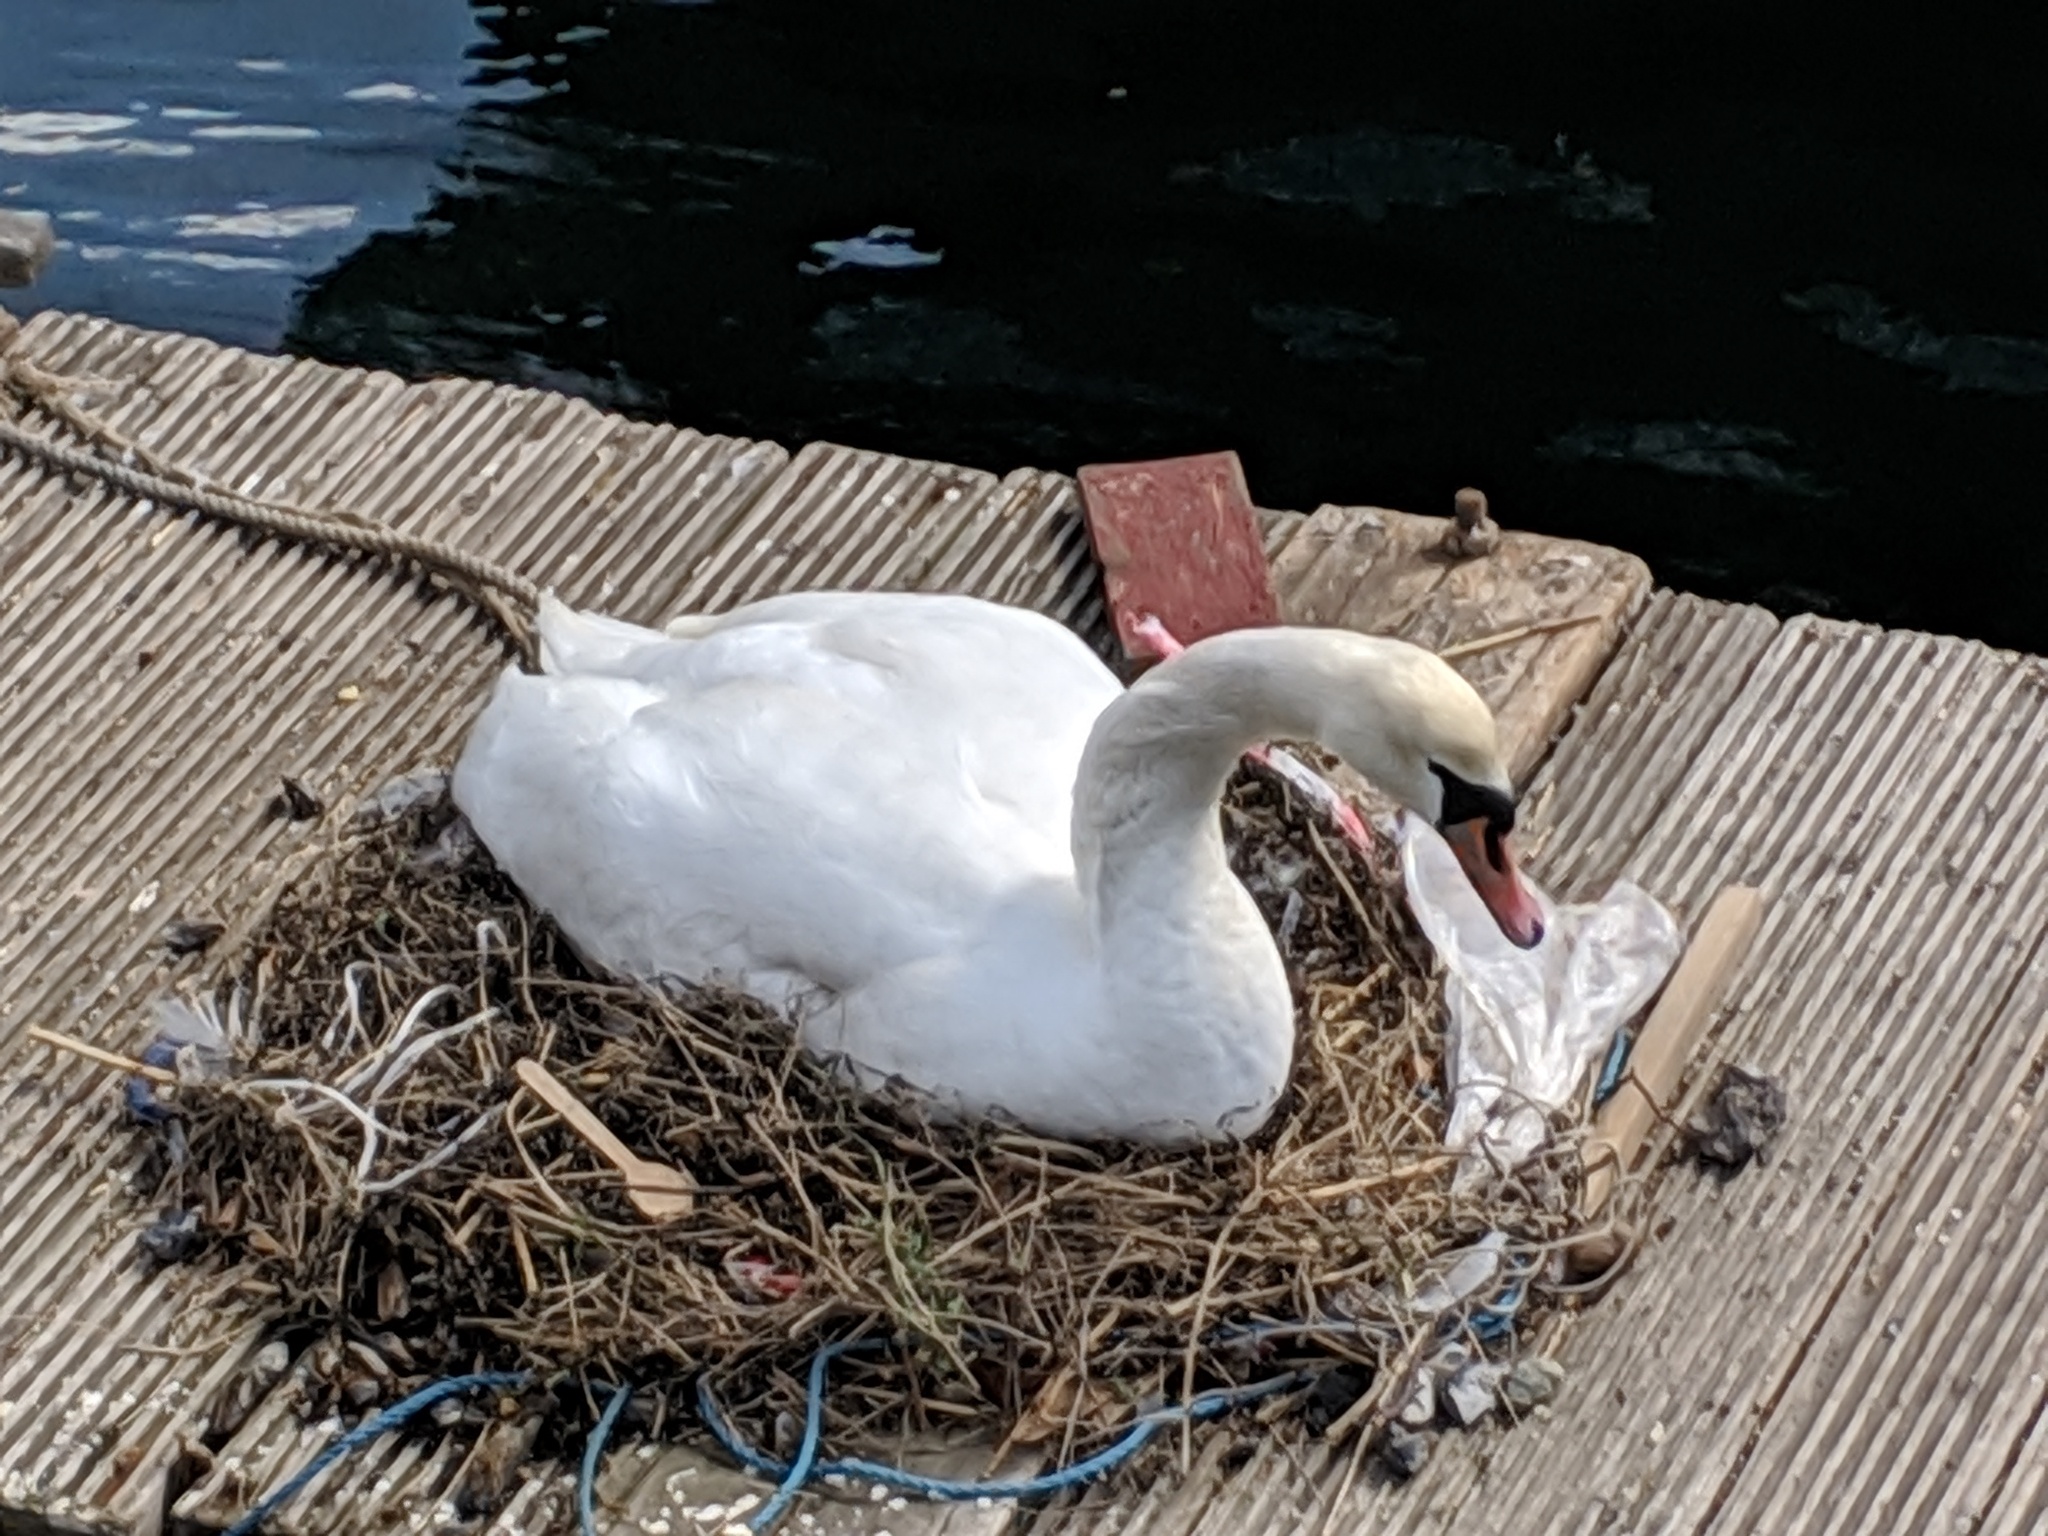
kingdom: Animalia
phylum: Chordata
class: Aves
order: Anseriformes
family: Anatidae
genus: Cygnus
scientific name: Cygnus olor
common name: Mute swan
